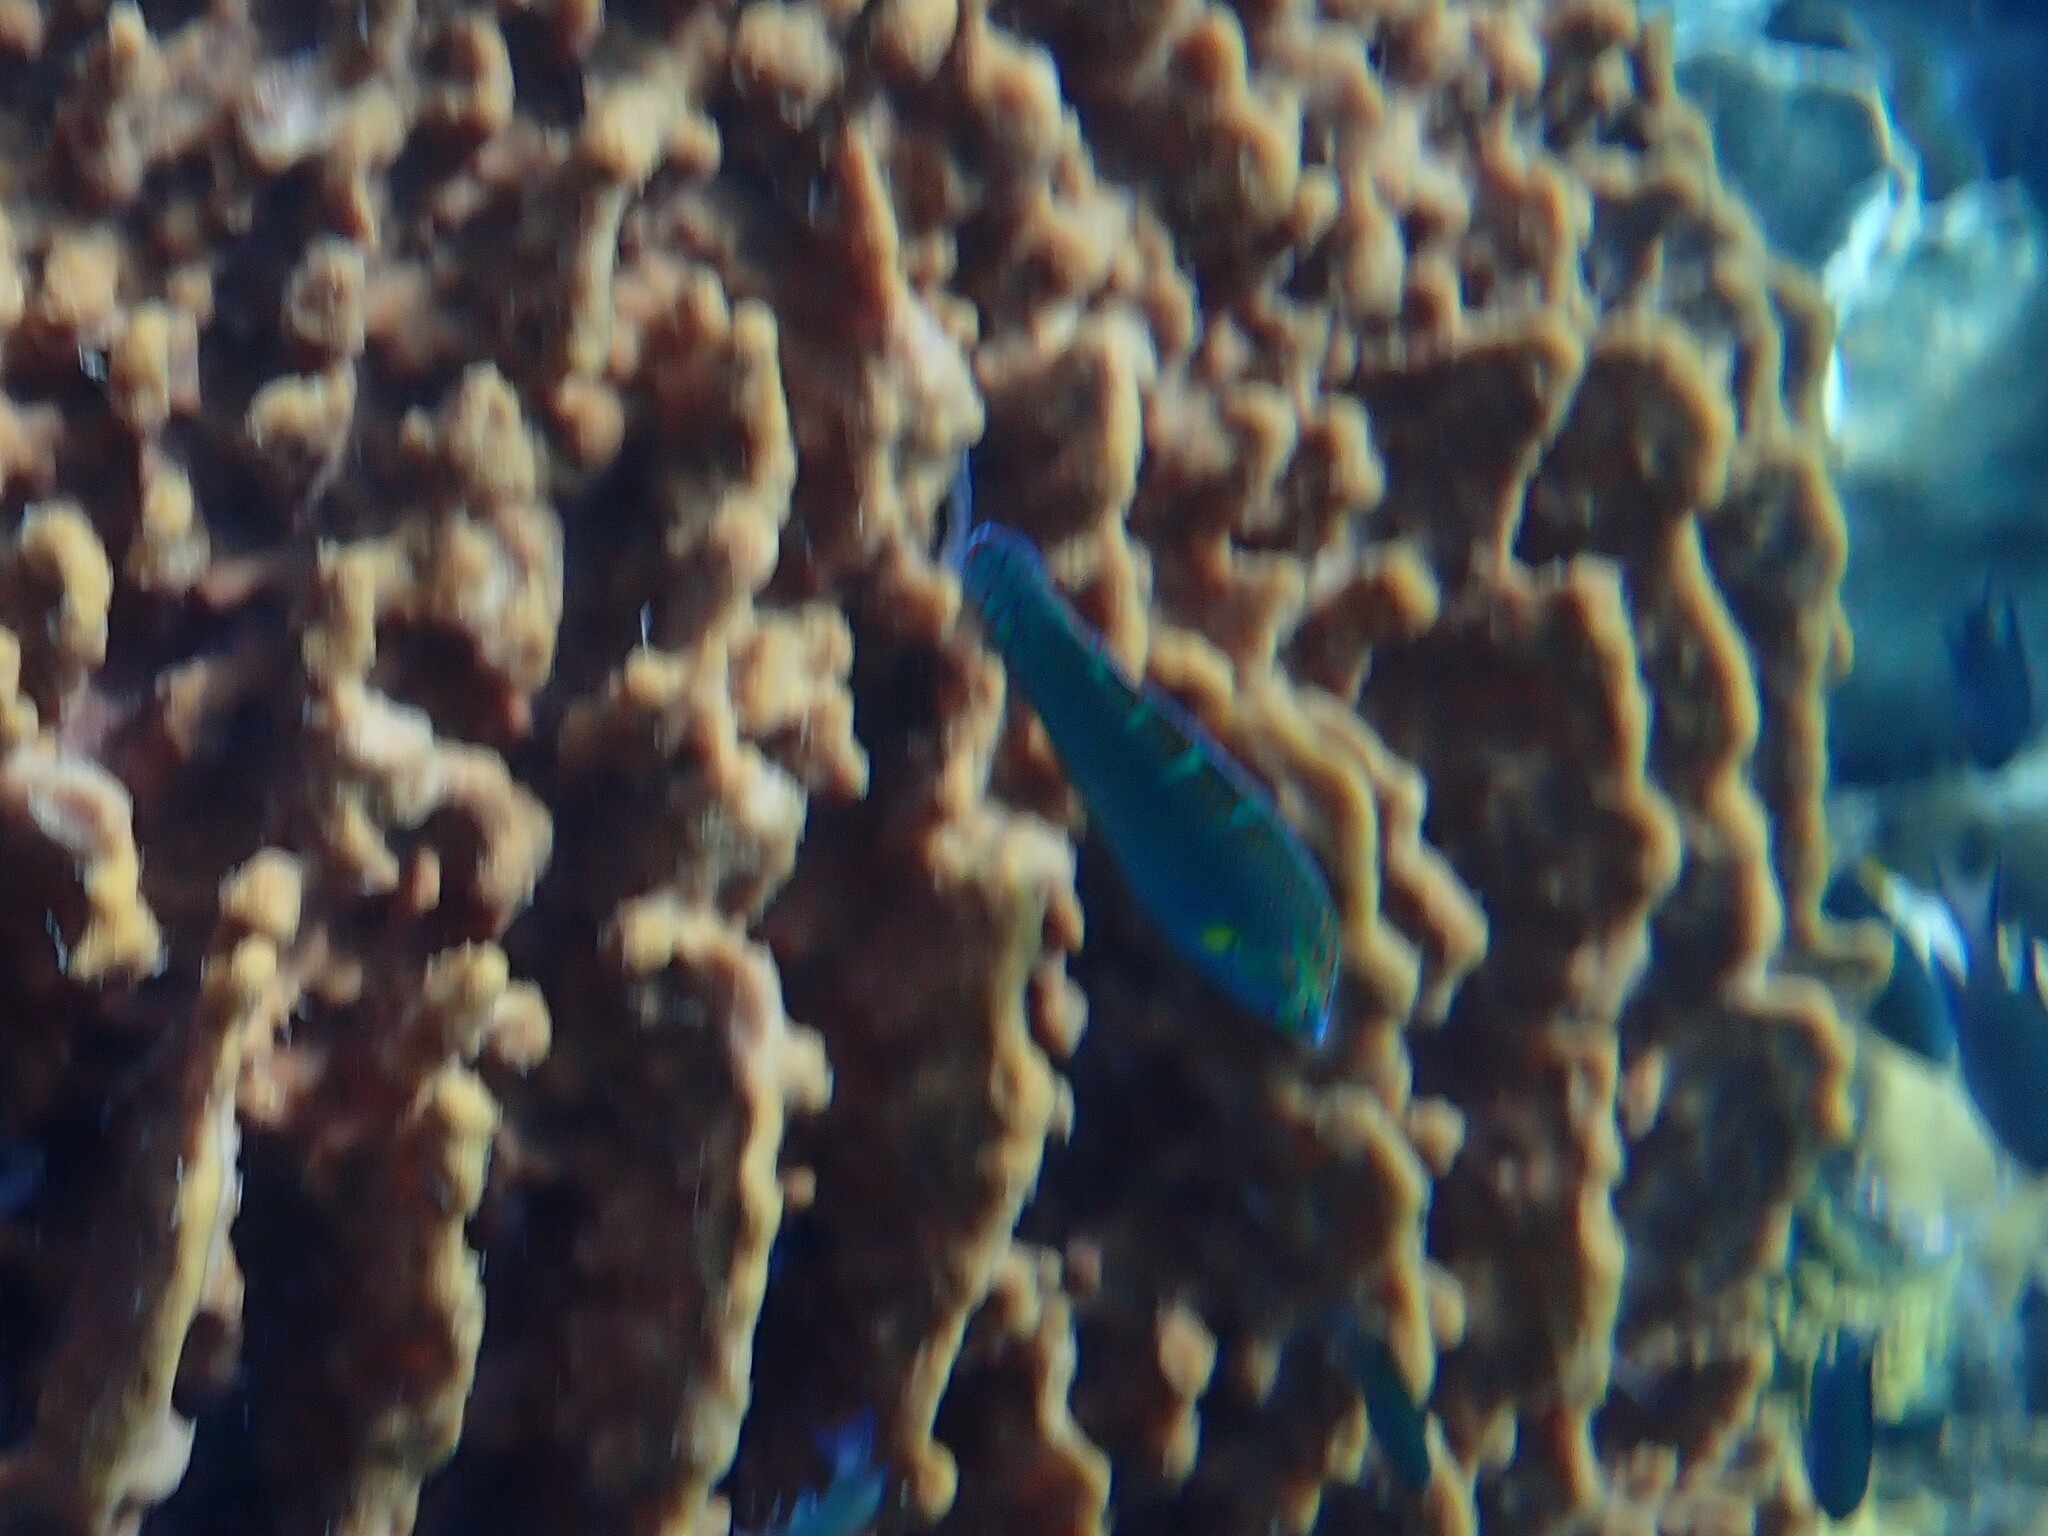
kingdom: Animalia
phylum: Chordata
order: Perciformes
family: Labridae
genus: Halichoeres
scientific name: Halichoeres melanurus
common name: Hoeven's wrasse
